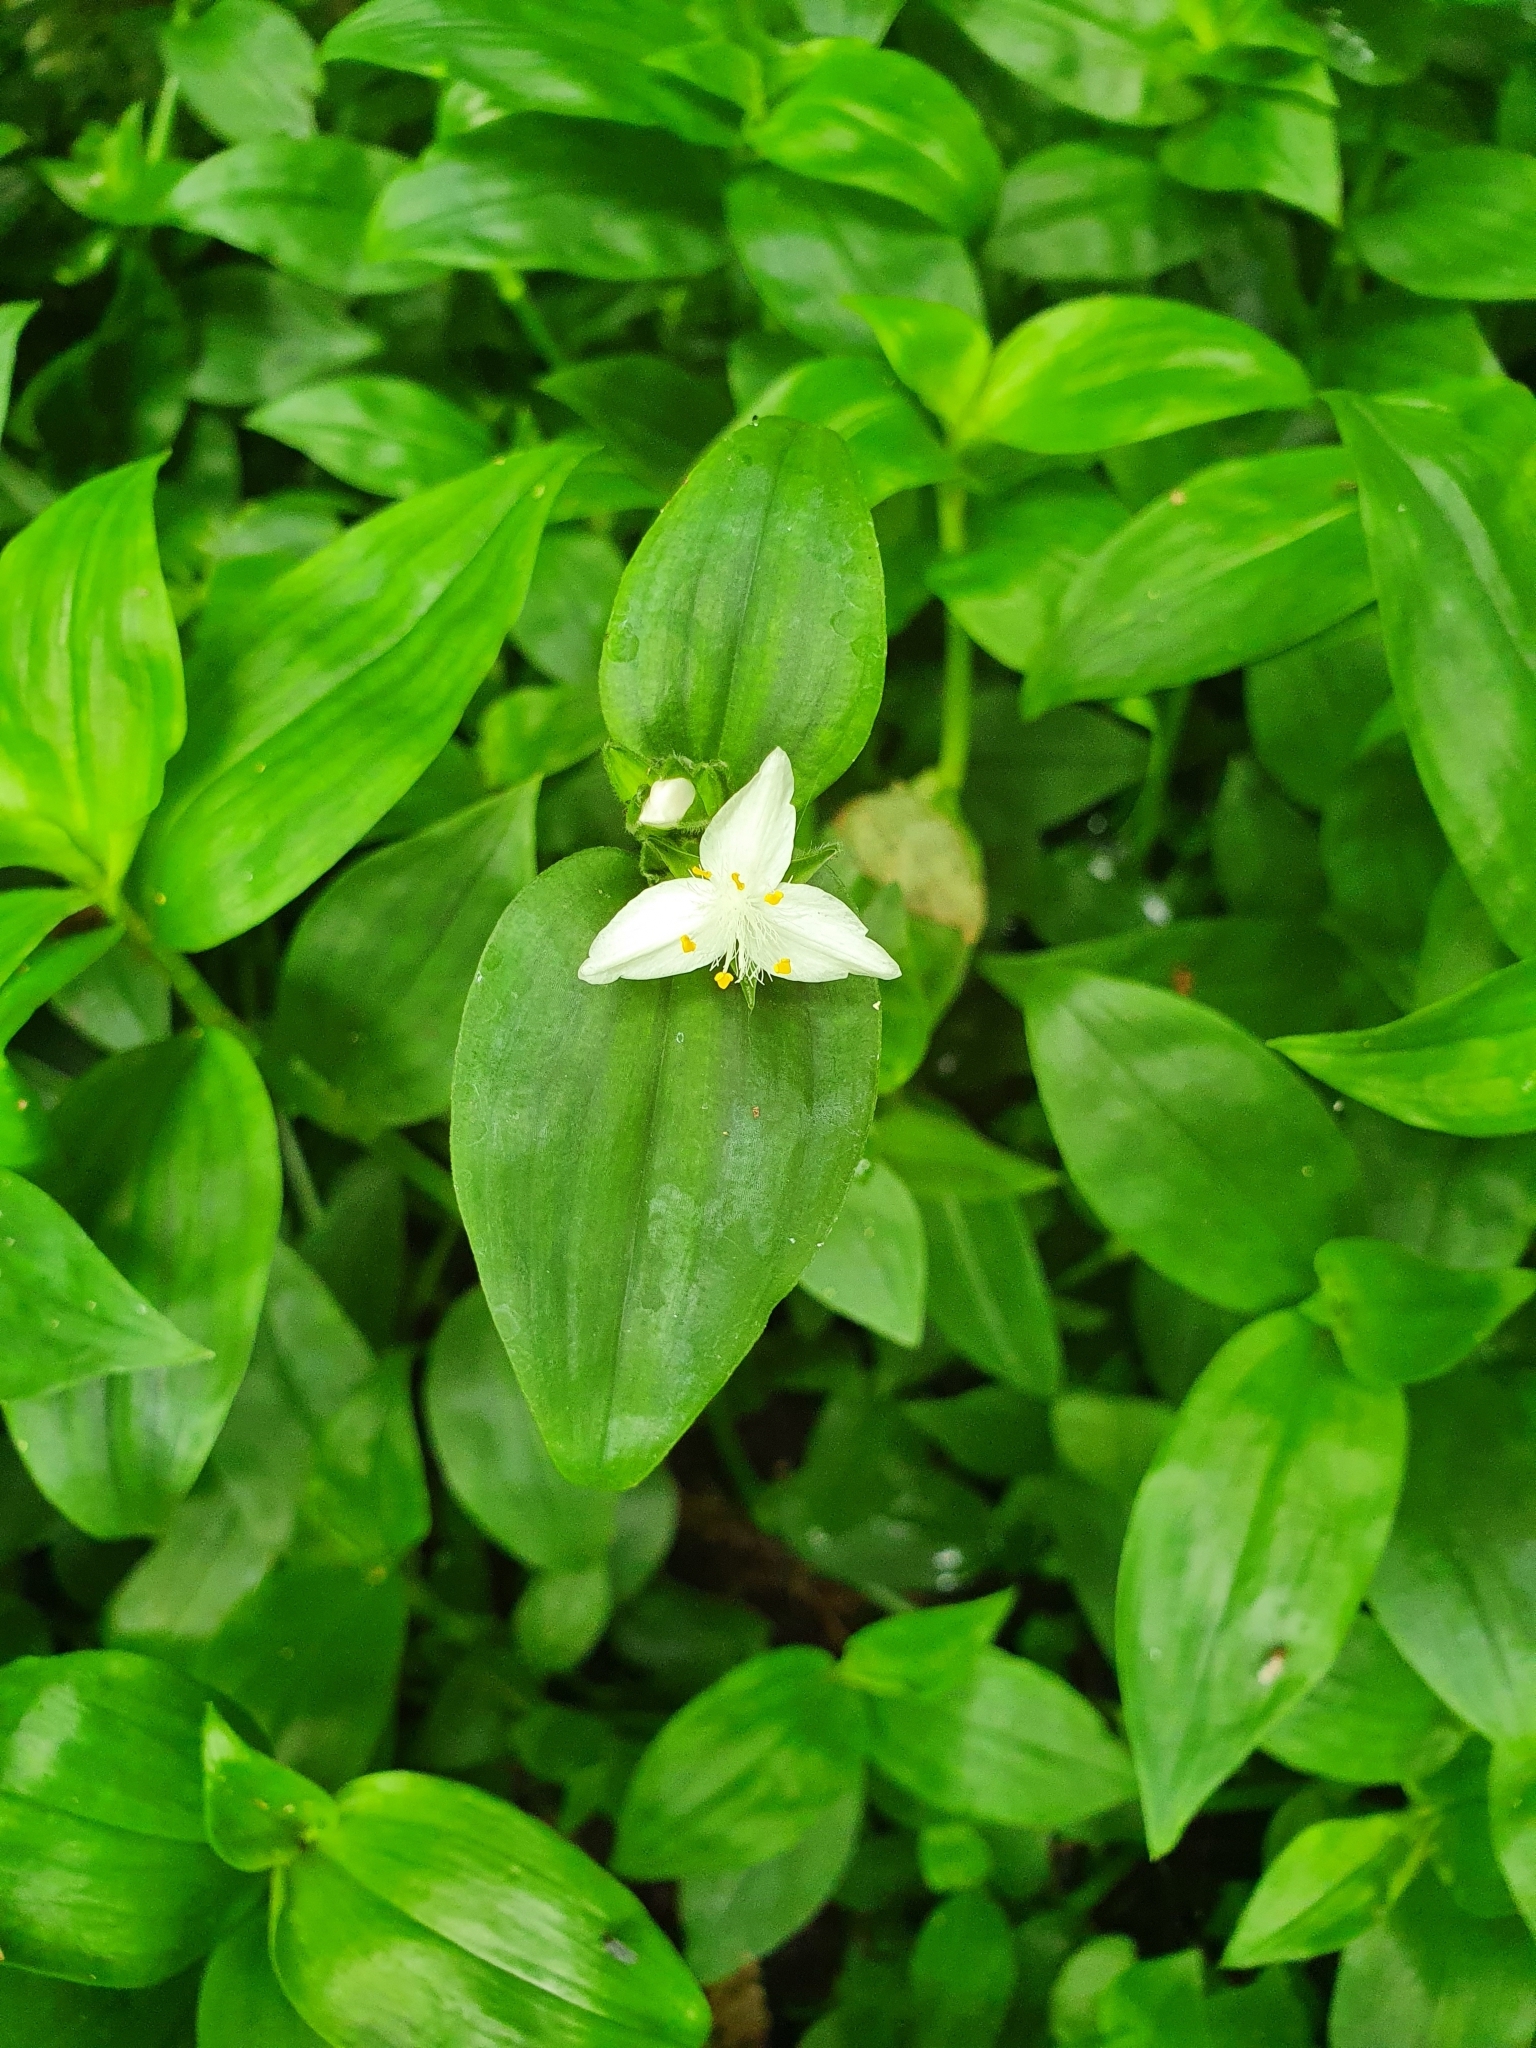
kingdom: Plantae
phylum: Tracheophyta
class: Liliopsida
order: Commelinales
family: Commelinaceae
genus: Tradescantia
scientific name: Tradescantia fluminensis
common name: Wandering-jew
